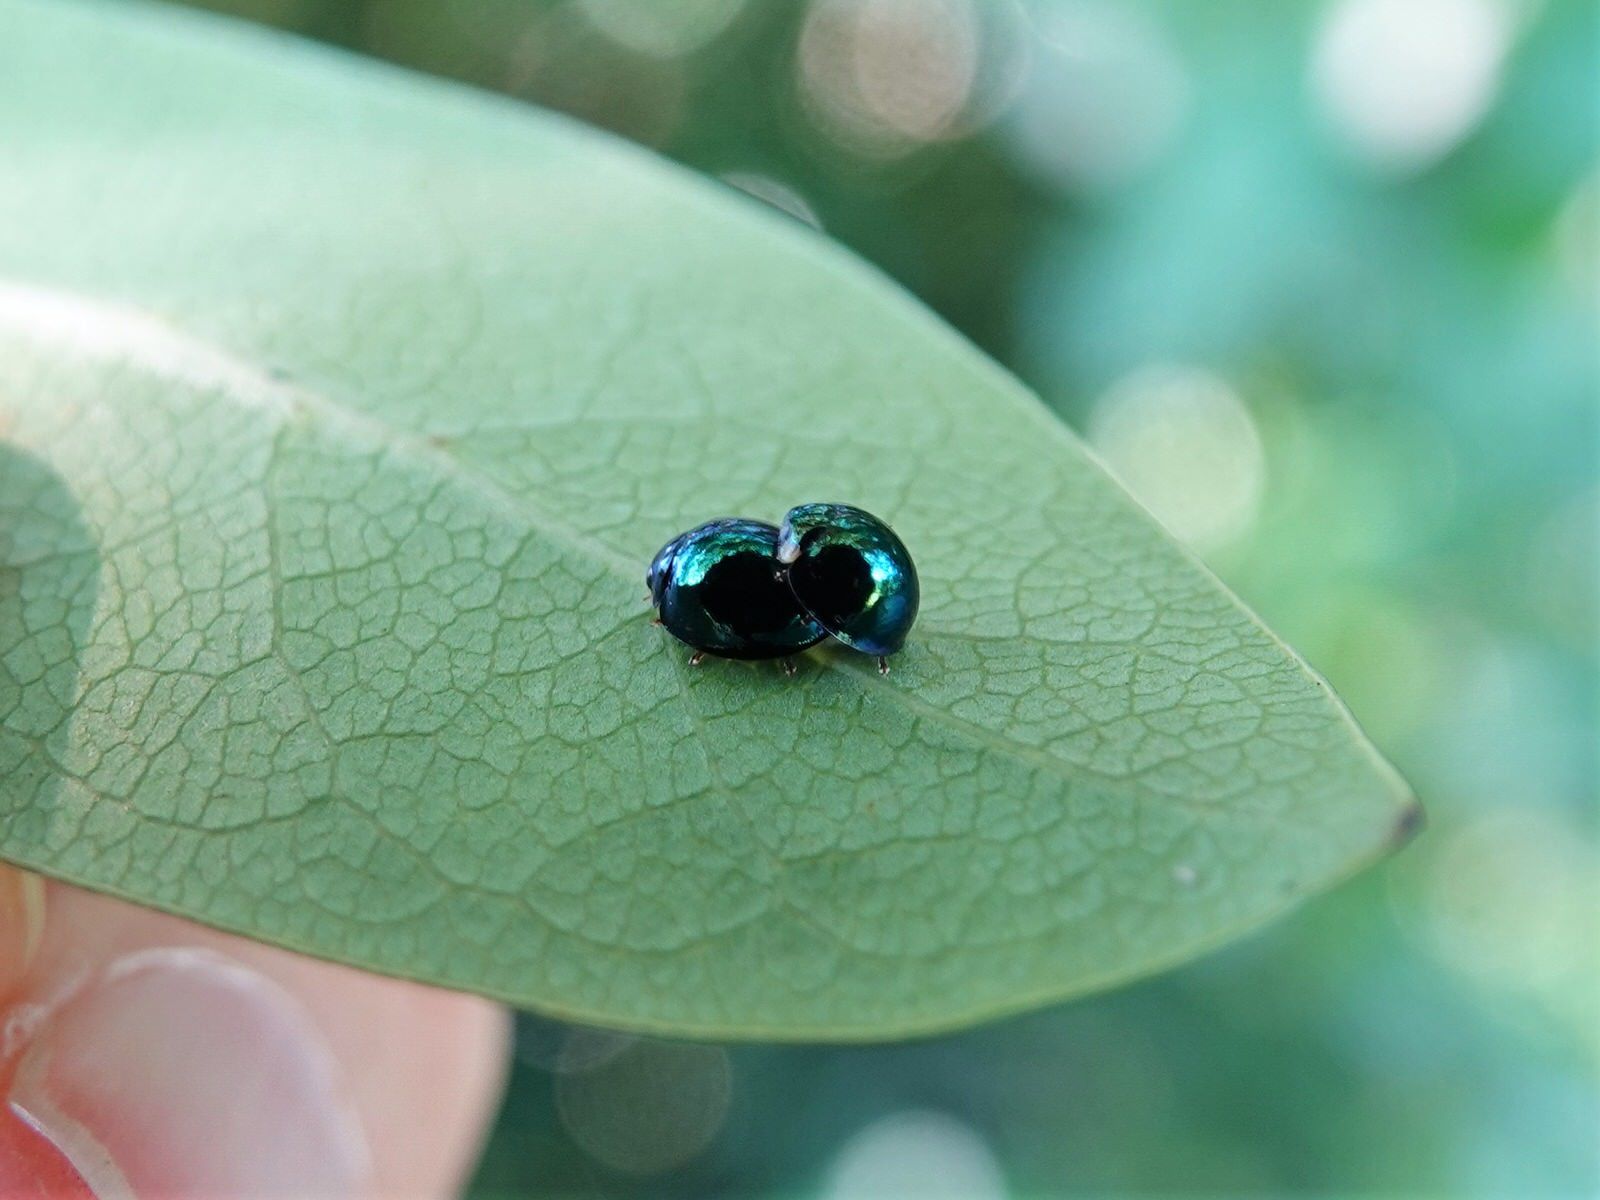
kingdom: Animalia
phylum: Arthropoda
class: Insecta
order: Coleoptera
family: Coccinellidae
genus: Halmus
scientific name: Halmus chalybeus
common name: Steel blue ladybird beetle
